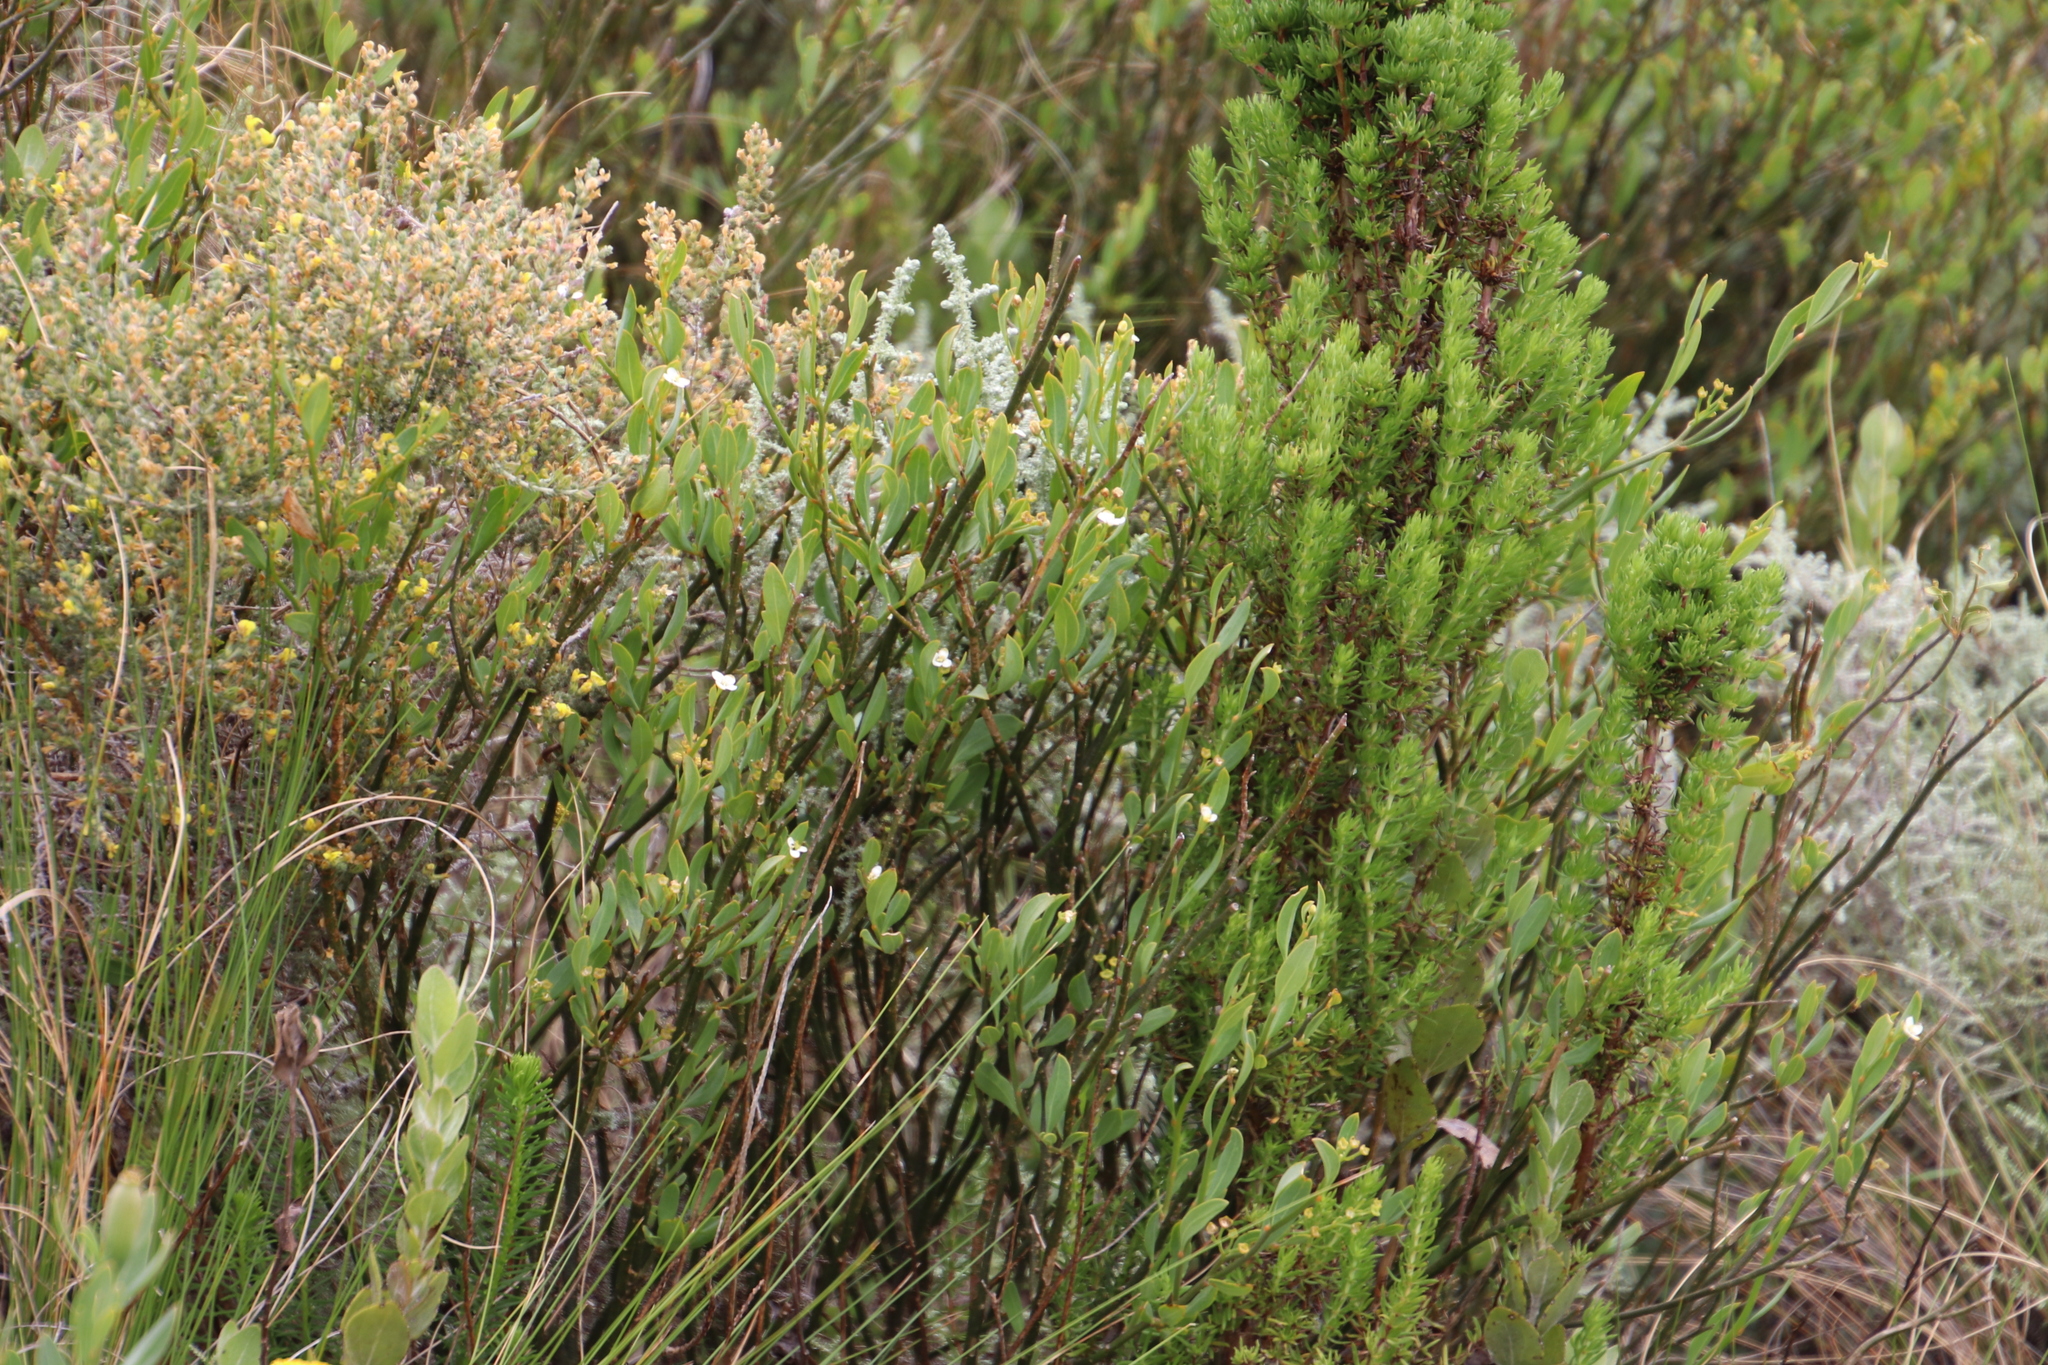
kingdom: Plantae
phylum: Tracheophyta
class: Magnoliopsida
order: Asterales
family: Asteraceae
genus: Osteospermum
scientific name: Osteospermum moniliferum
